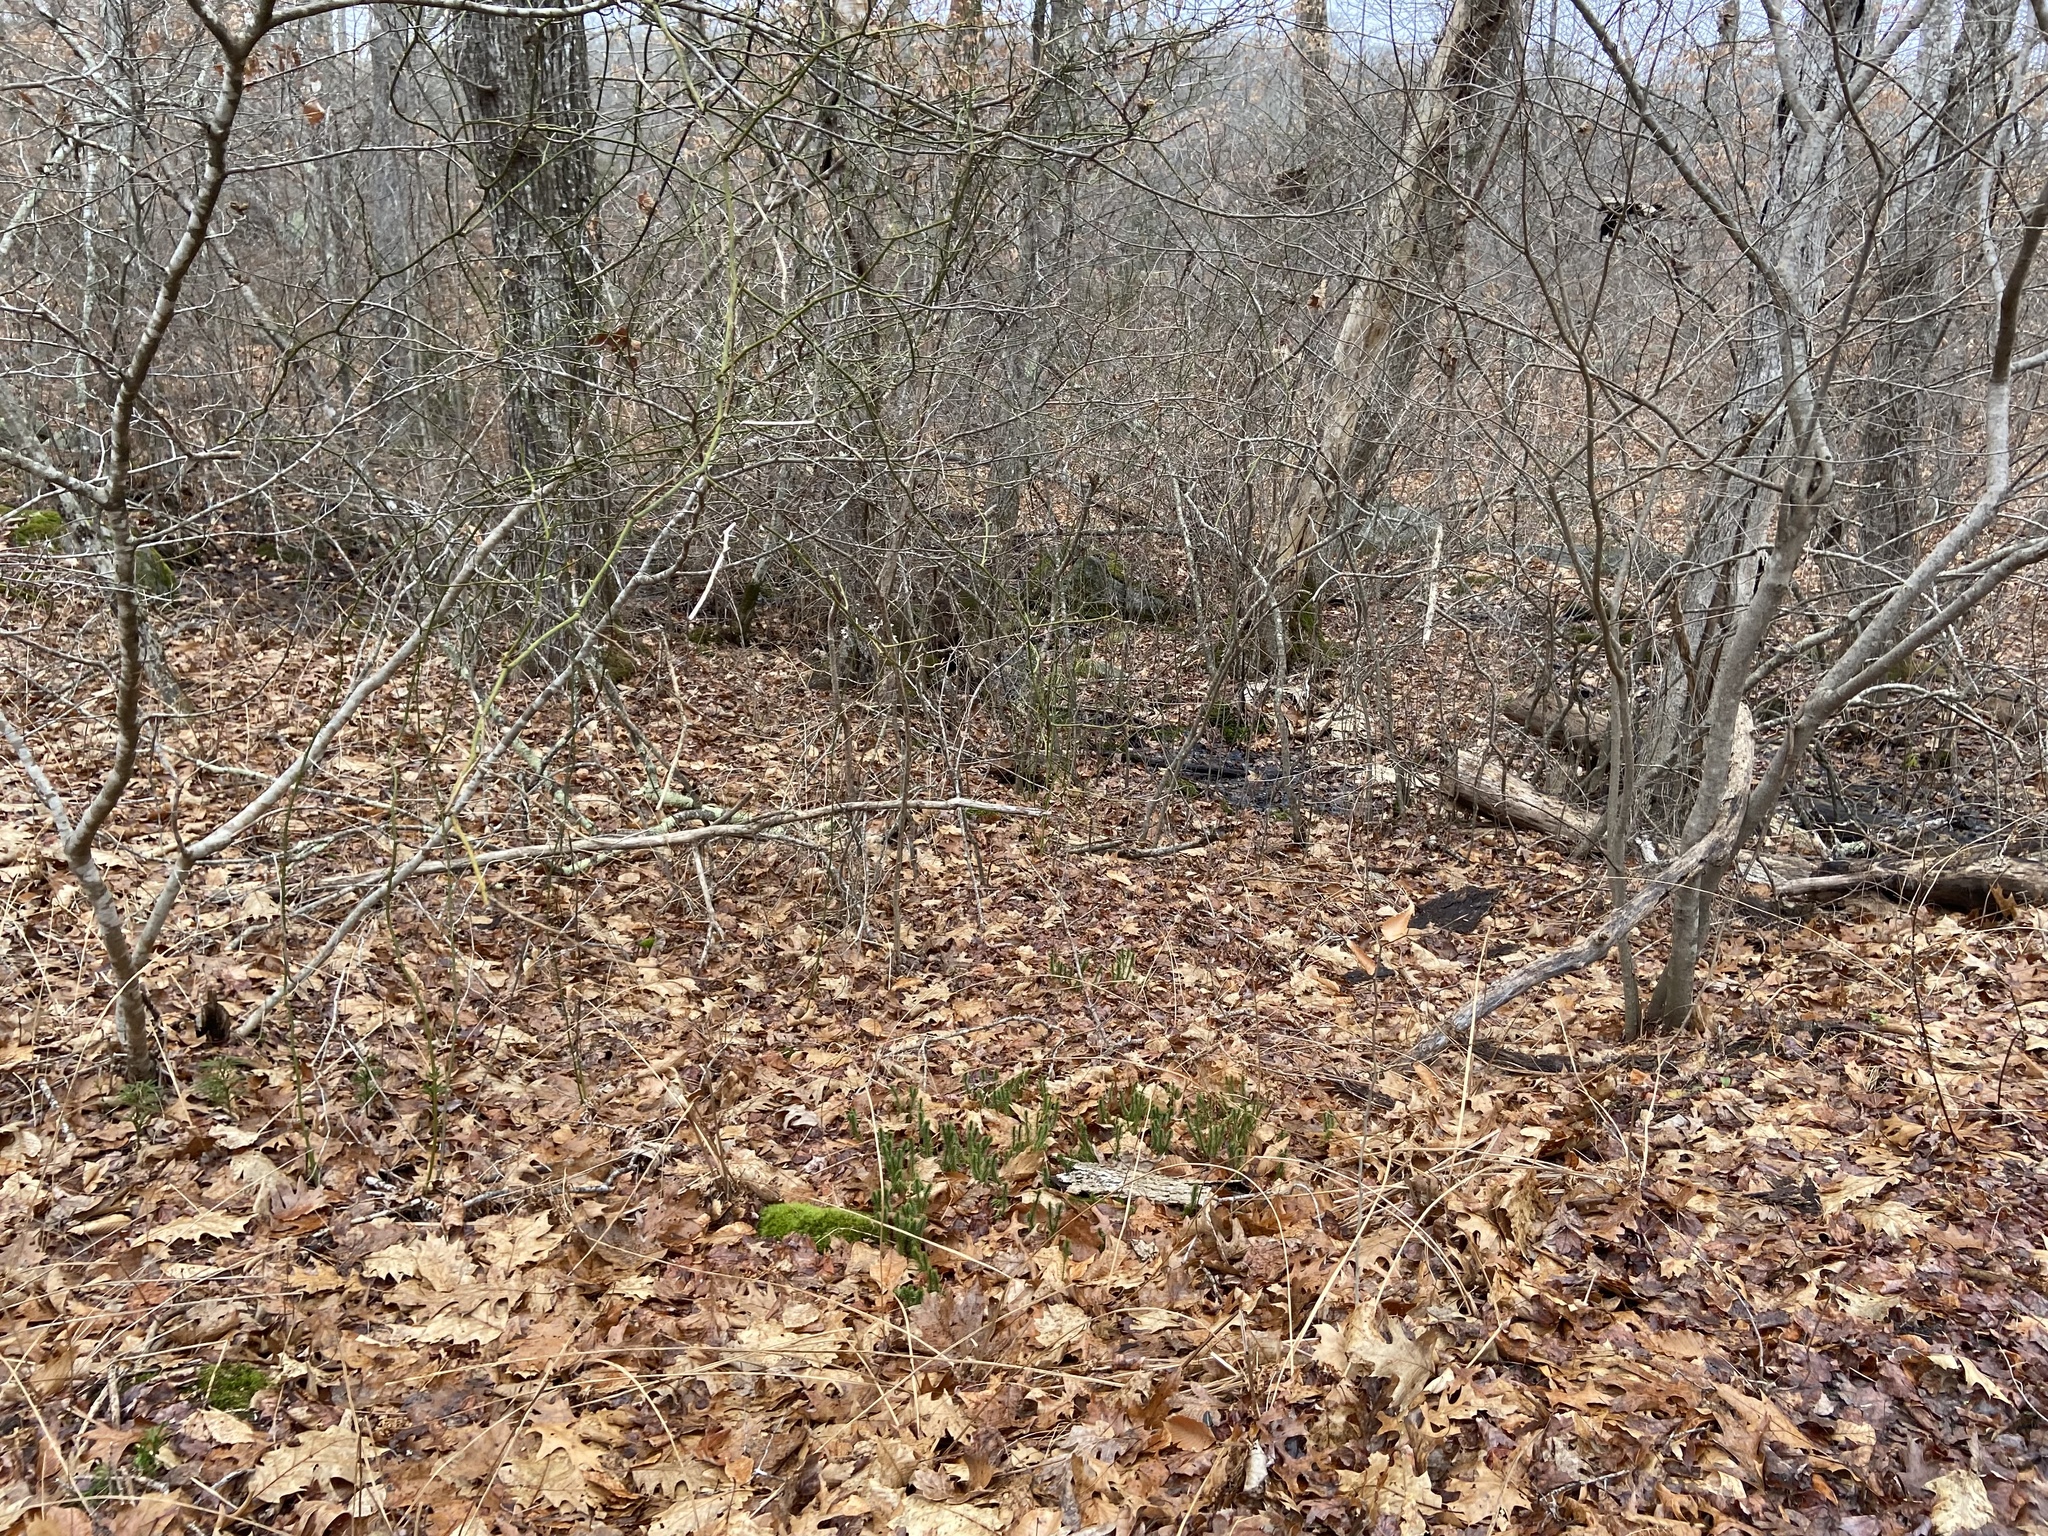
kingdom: Plantae
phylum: Tracheophyta
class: Lycopodiopsida
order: Lycopodiales
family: Lycopodiaceae
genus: Huperzia
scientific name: Huperzia lucidula
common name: Shining clubmoss
